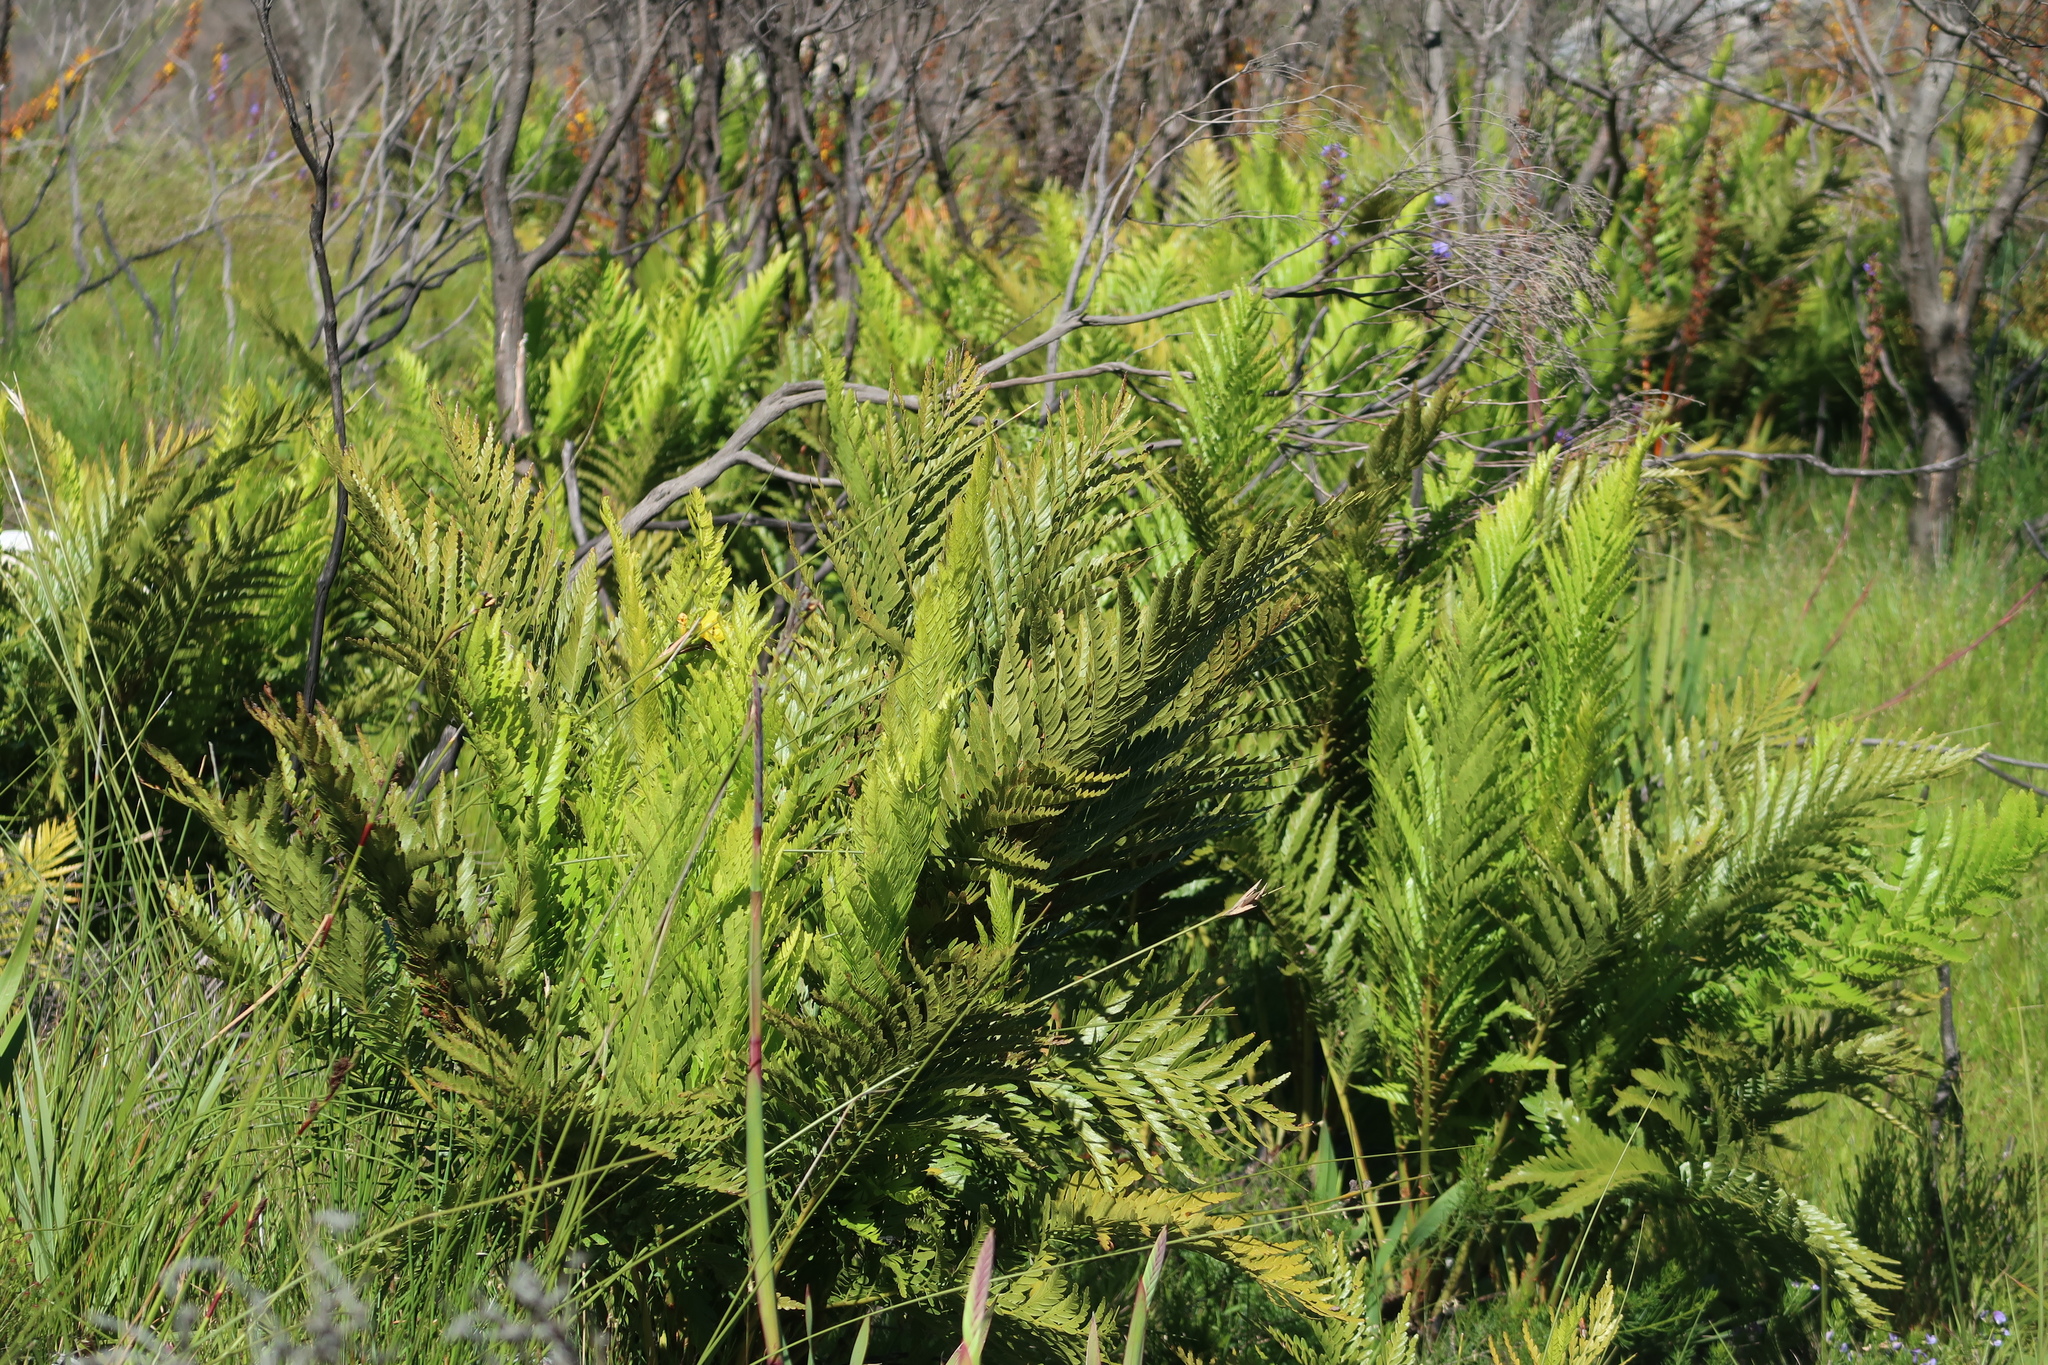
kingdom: Plantae
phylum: Tracheophyta
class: Polypodiopsida
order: Osmundales
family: Osmundaceae
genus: Todea
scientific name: Todea barbara
